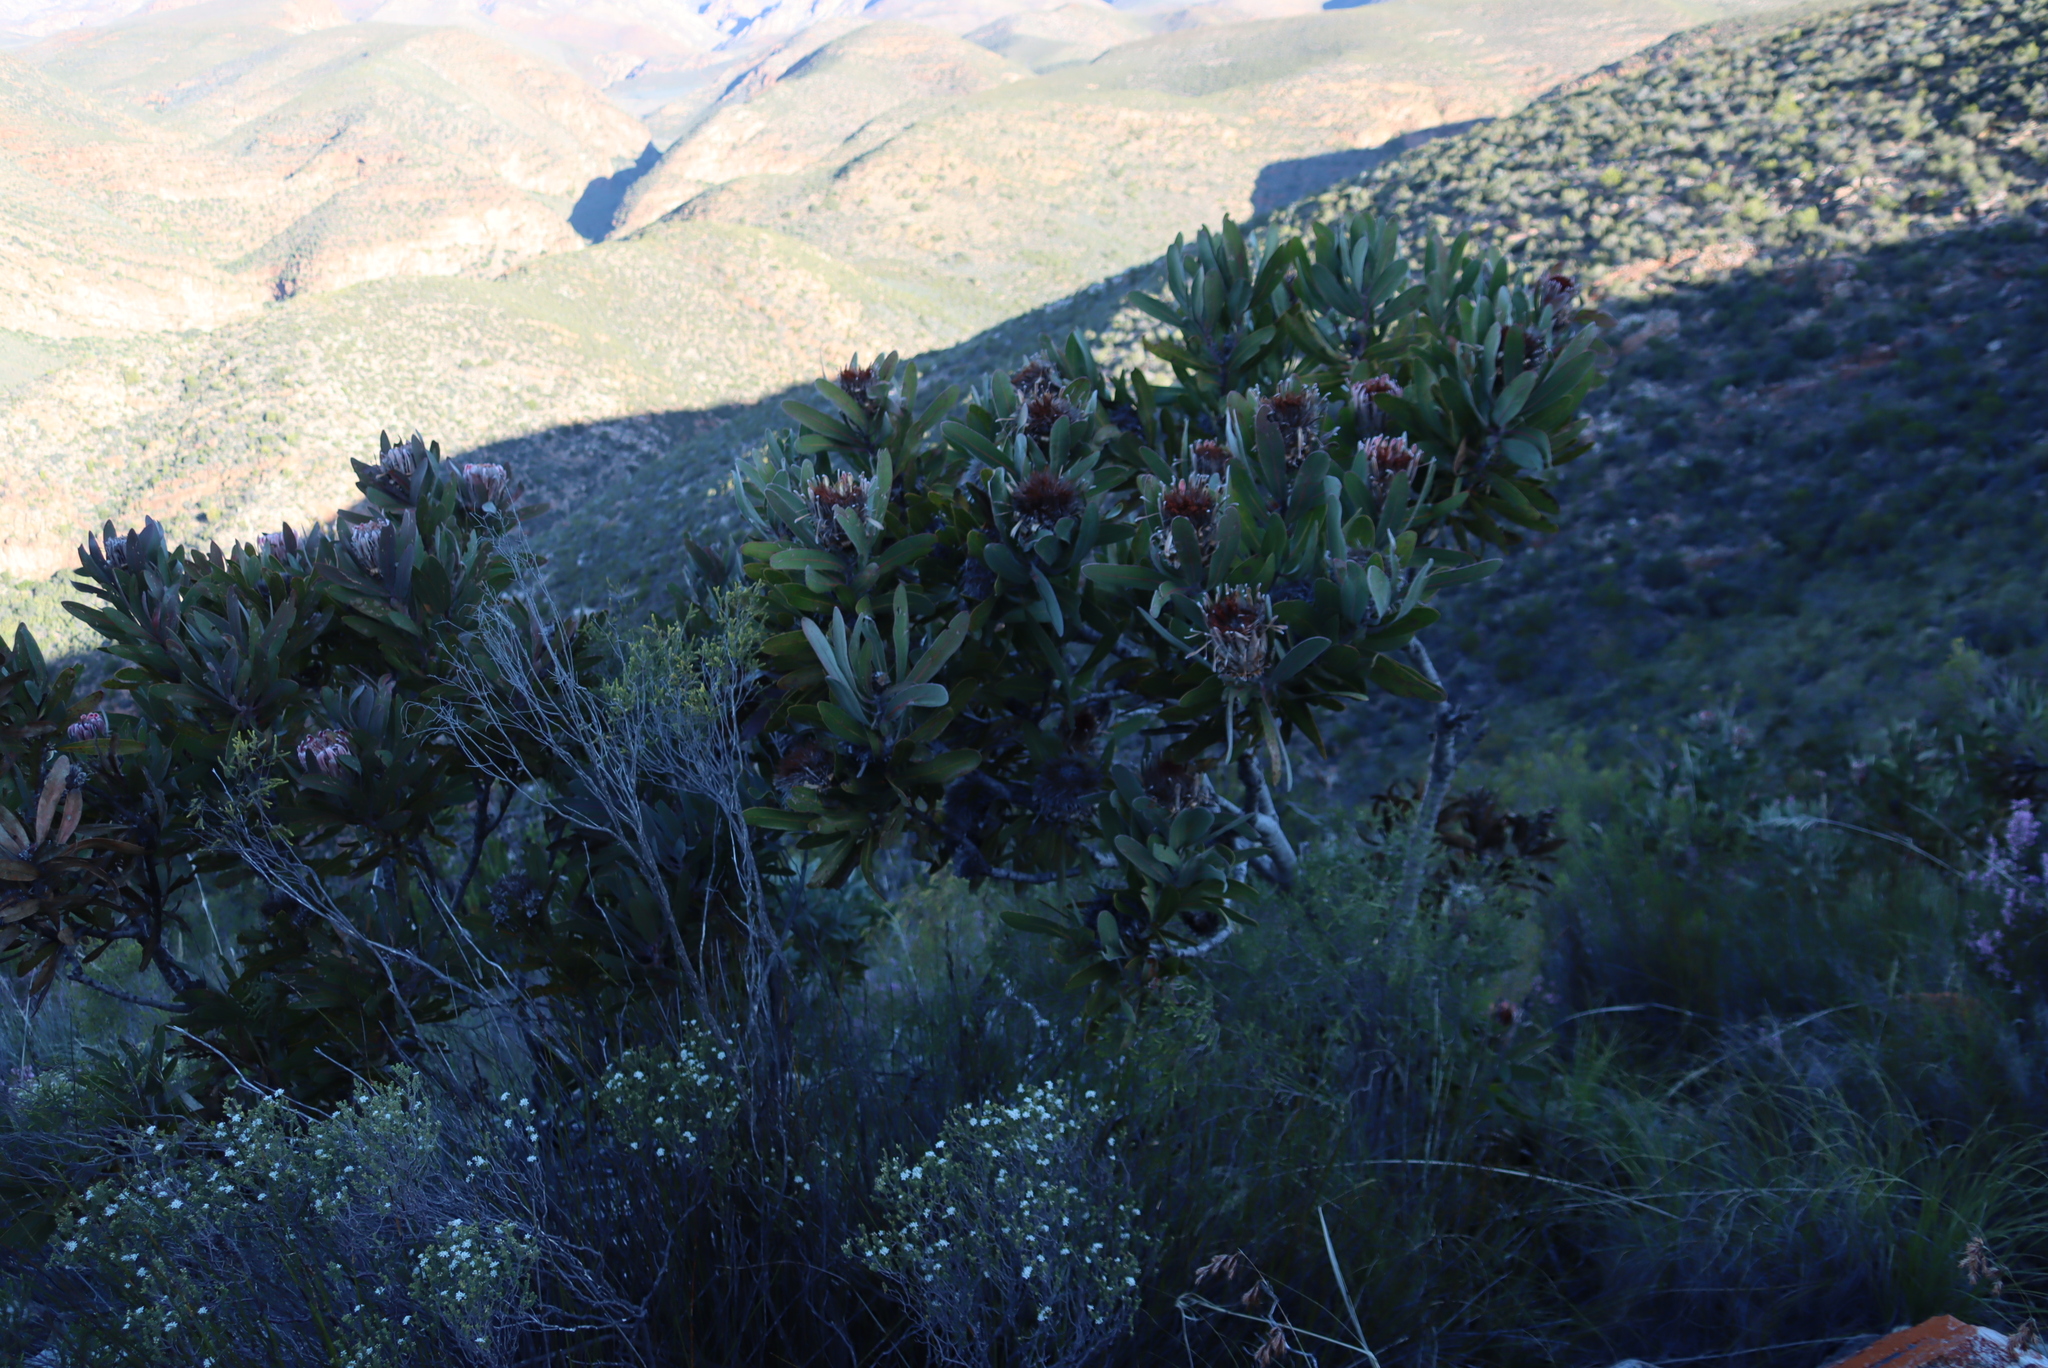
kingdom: Plantae
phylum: Tracheophyta
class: Magnoliopsida
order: Proteales
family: Proteaceae
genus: Protea
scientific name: Protea lorifolia
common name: Strap-leaved protea
